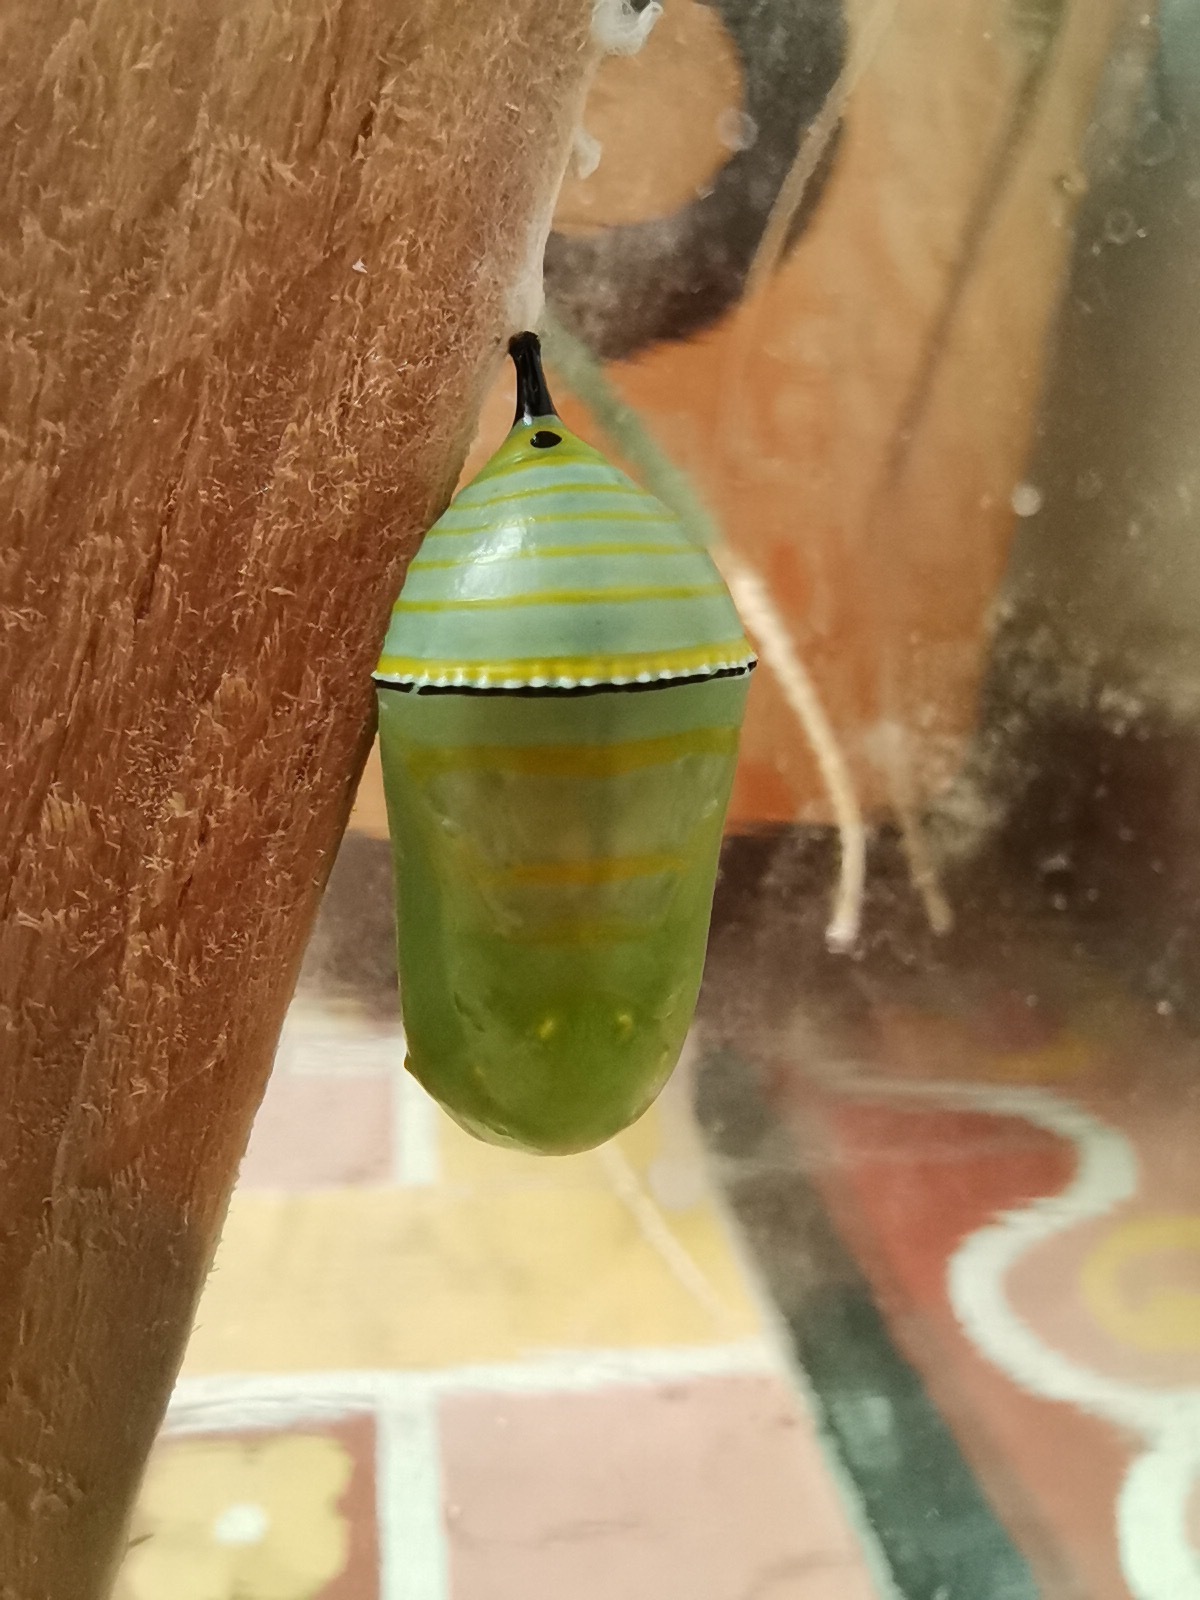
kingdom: Animalia
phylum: Arthropoda
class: Insecta
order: Lepidoptera
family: Nymphalidae
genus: Danaus
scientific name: Danaus plexippus
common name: Monarch
